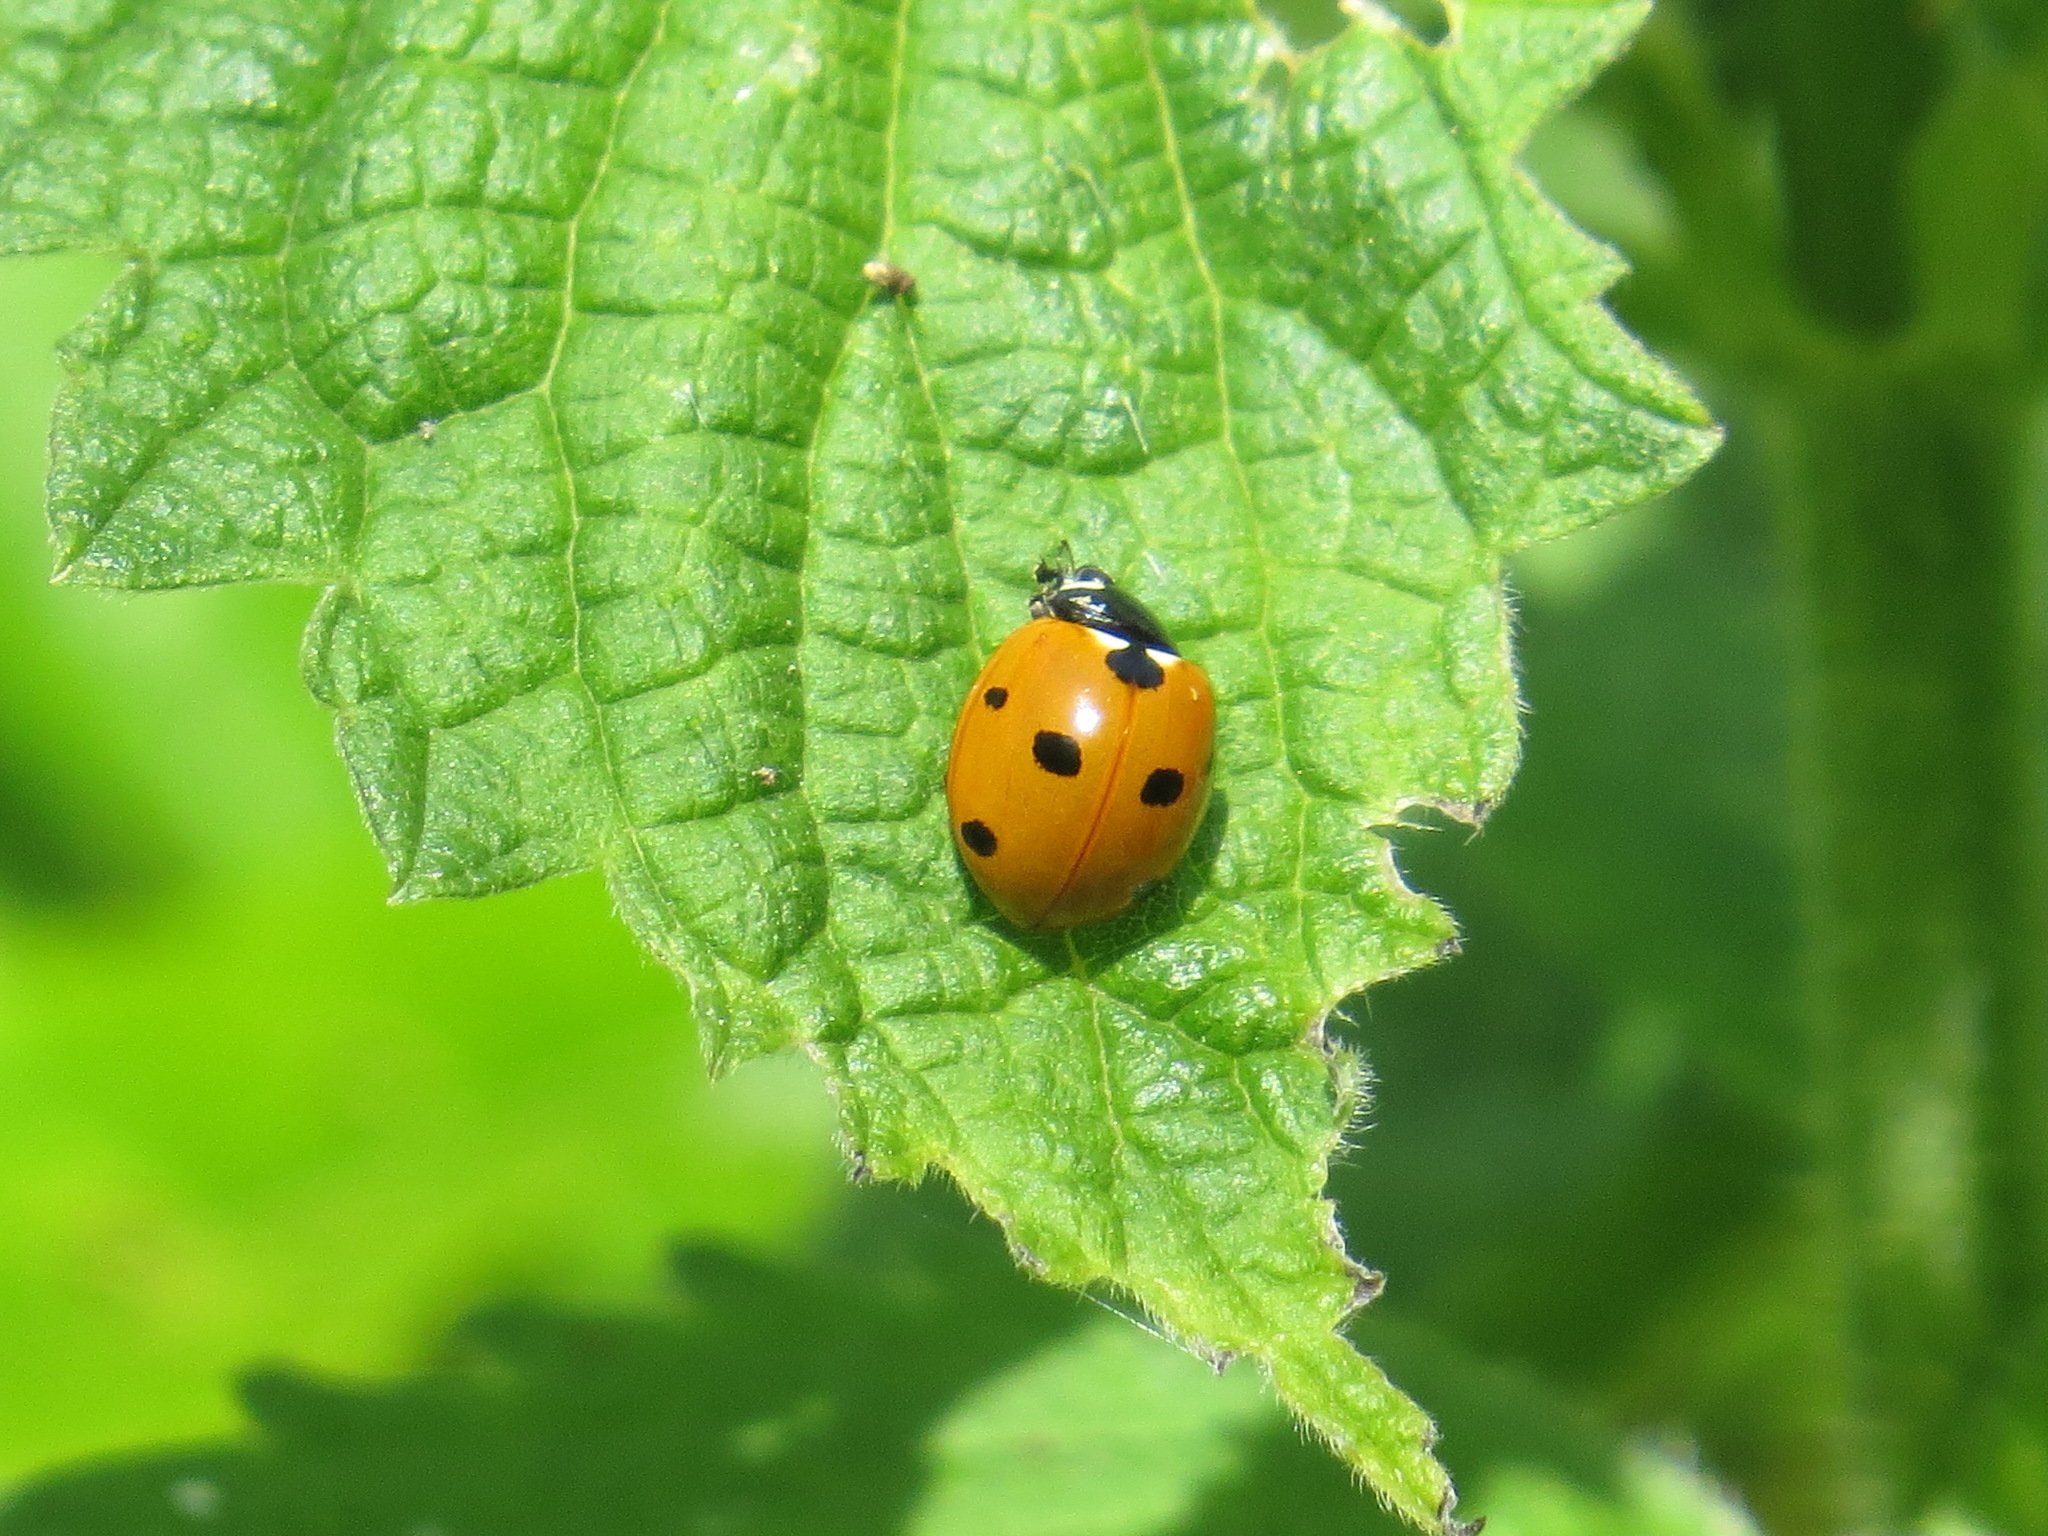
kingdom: Animalia
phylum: Arthropoda
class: Insecta
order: Coleoptera
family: Coccinellidae
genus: Coccinella
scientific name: Coccinella septempunctata
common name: Sevenspotted lady beetle
